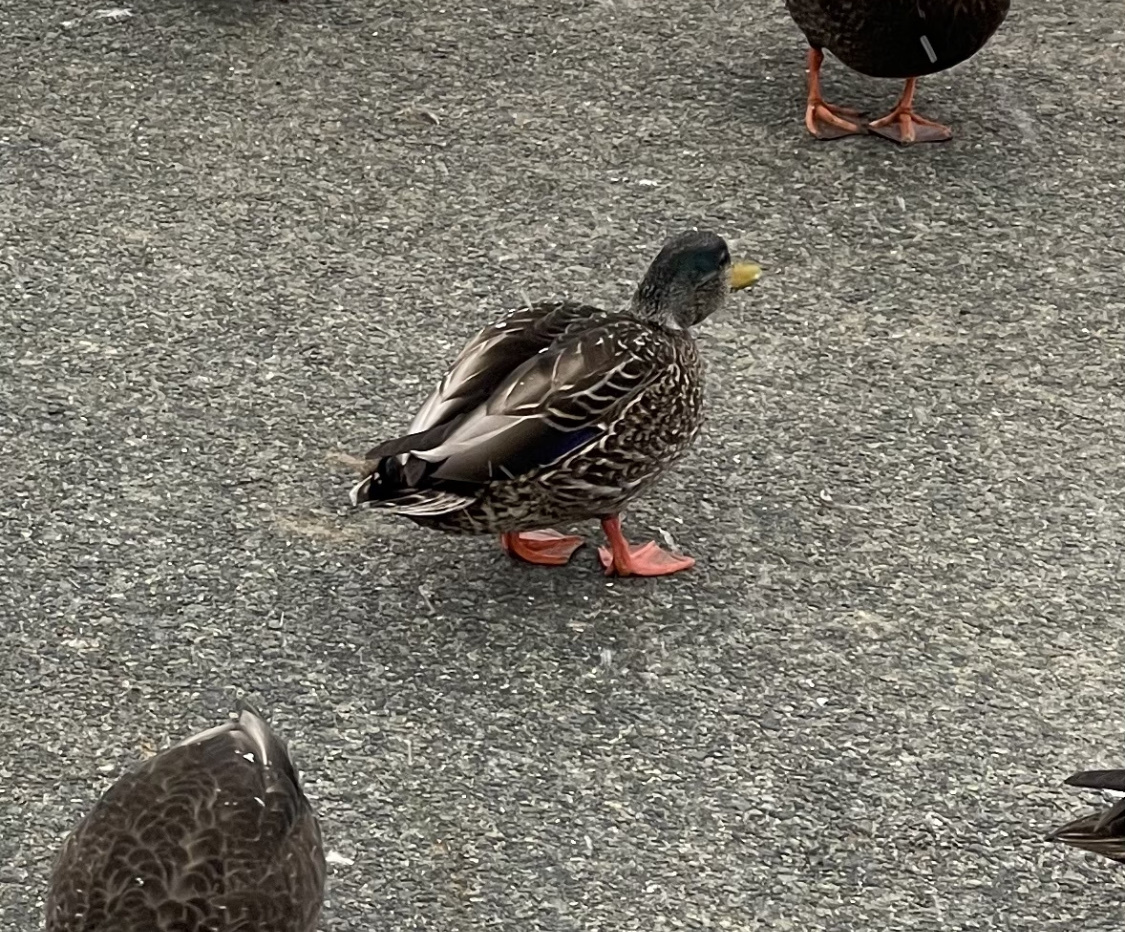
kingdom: Animalia
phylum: Chordata
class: Aves
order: Anseriformes
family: Anatidae
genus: Anas
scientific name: Anas platyrhynchos
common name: Mallard
